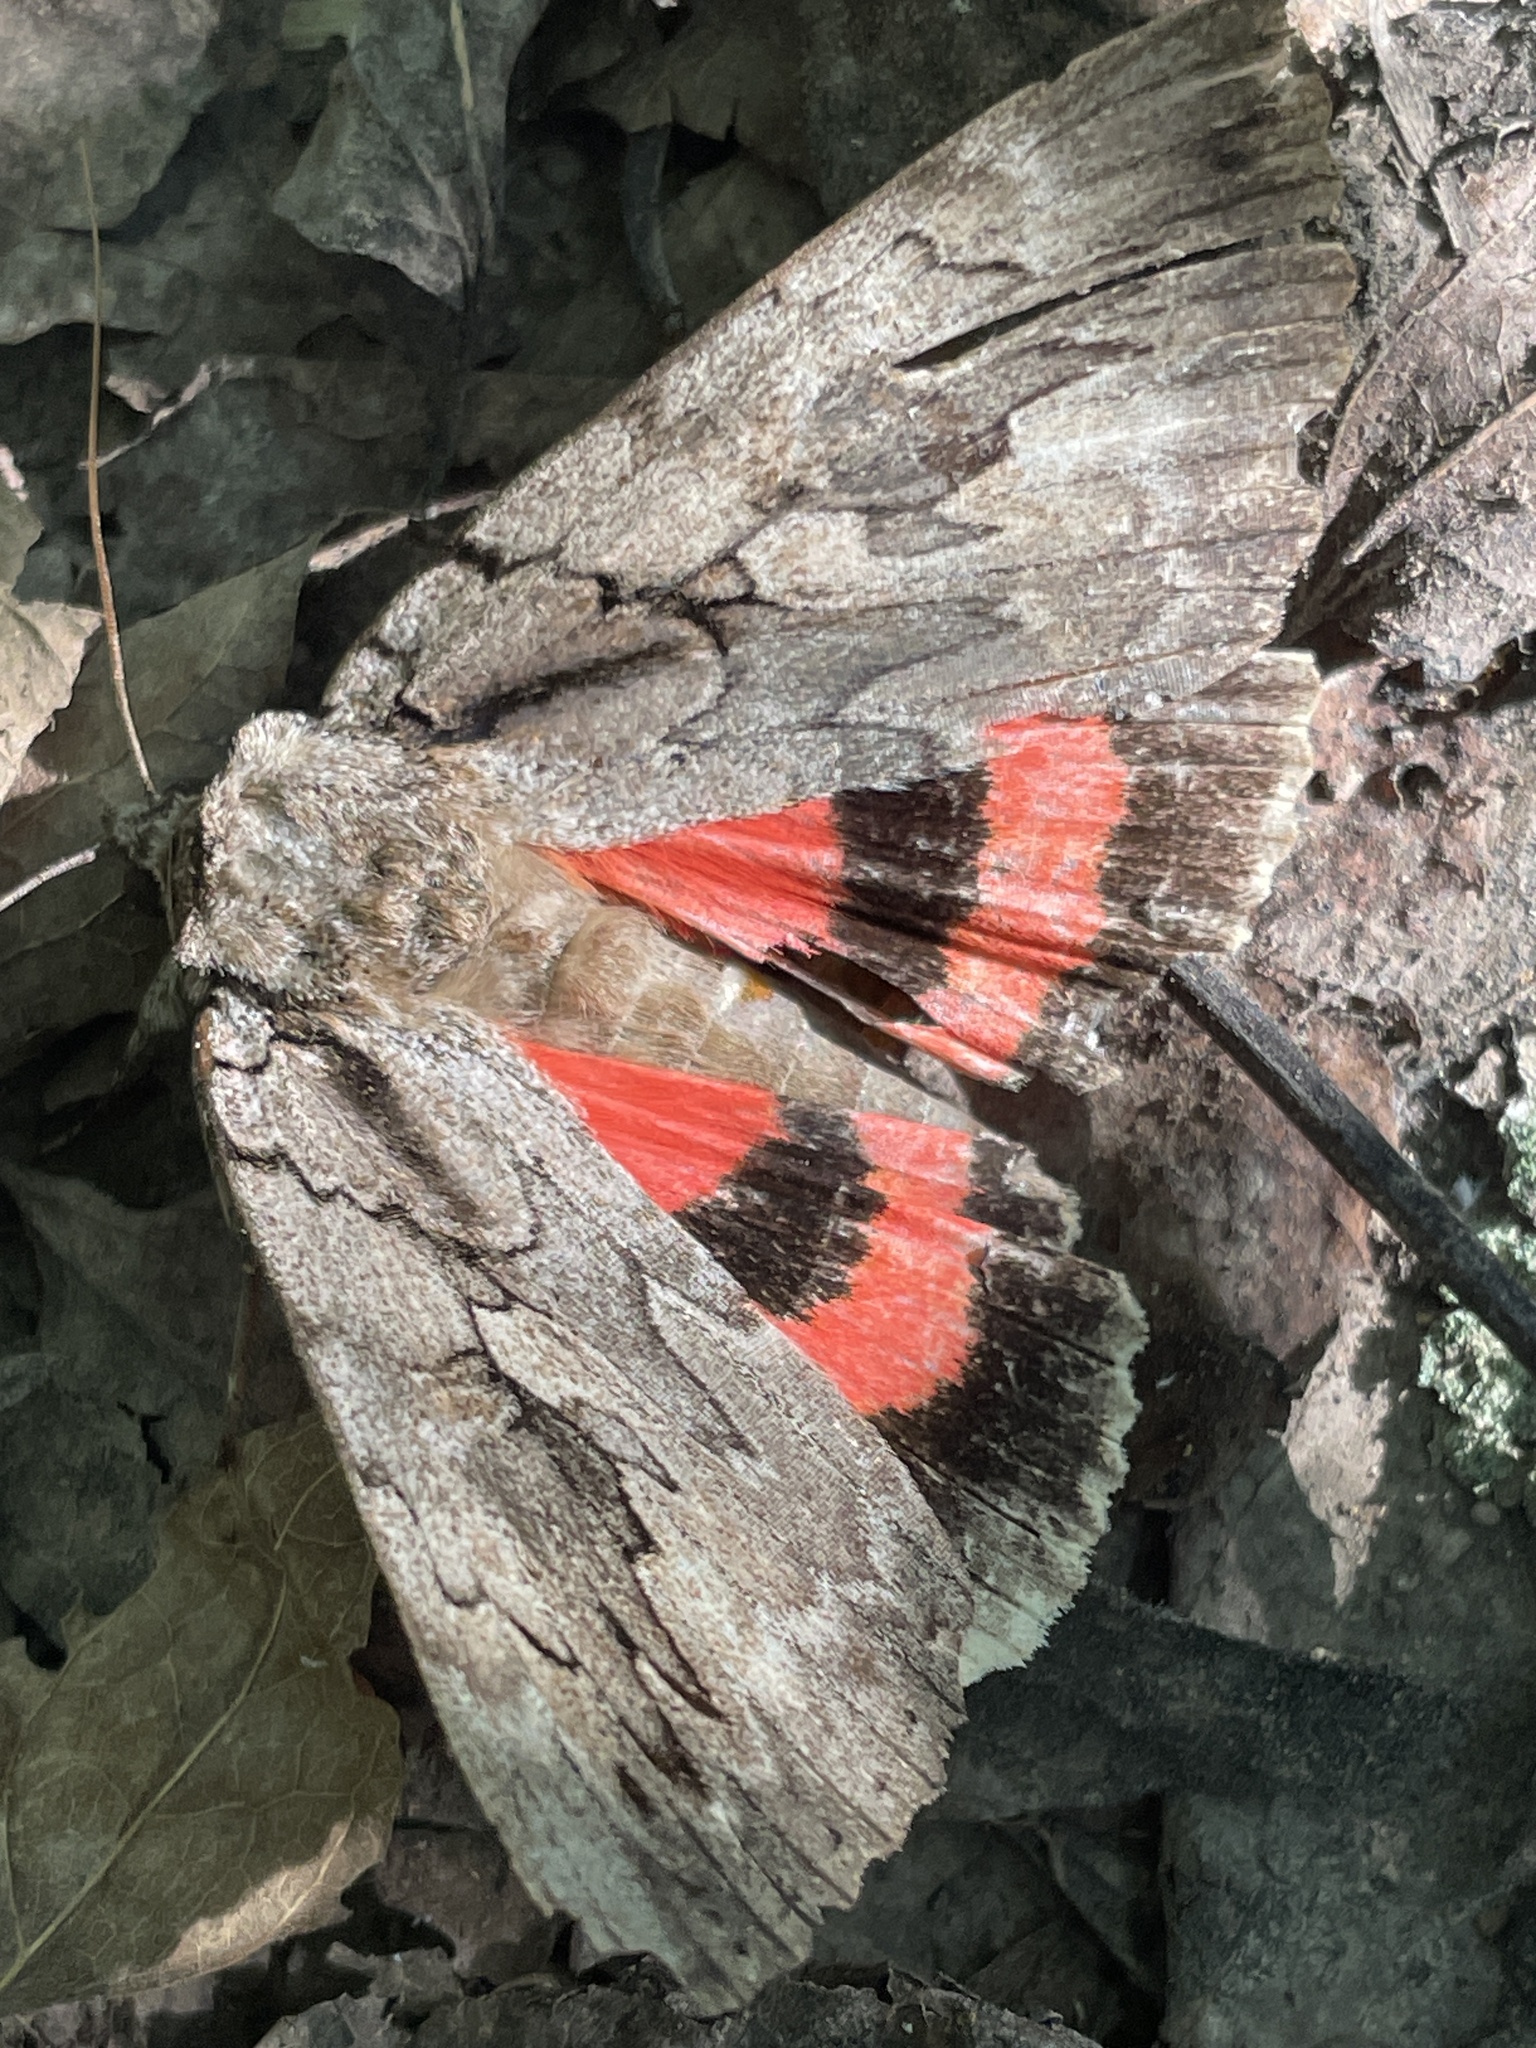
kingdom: Animalia
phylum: Arthropoda
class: Insecta
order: Lepidoptera
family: Erebidae
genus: Catocala
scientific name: Catocala amatrix
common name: Sweetheart underwing
